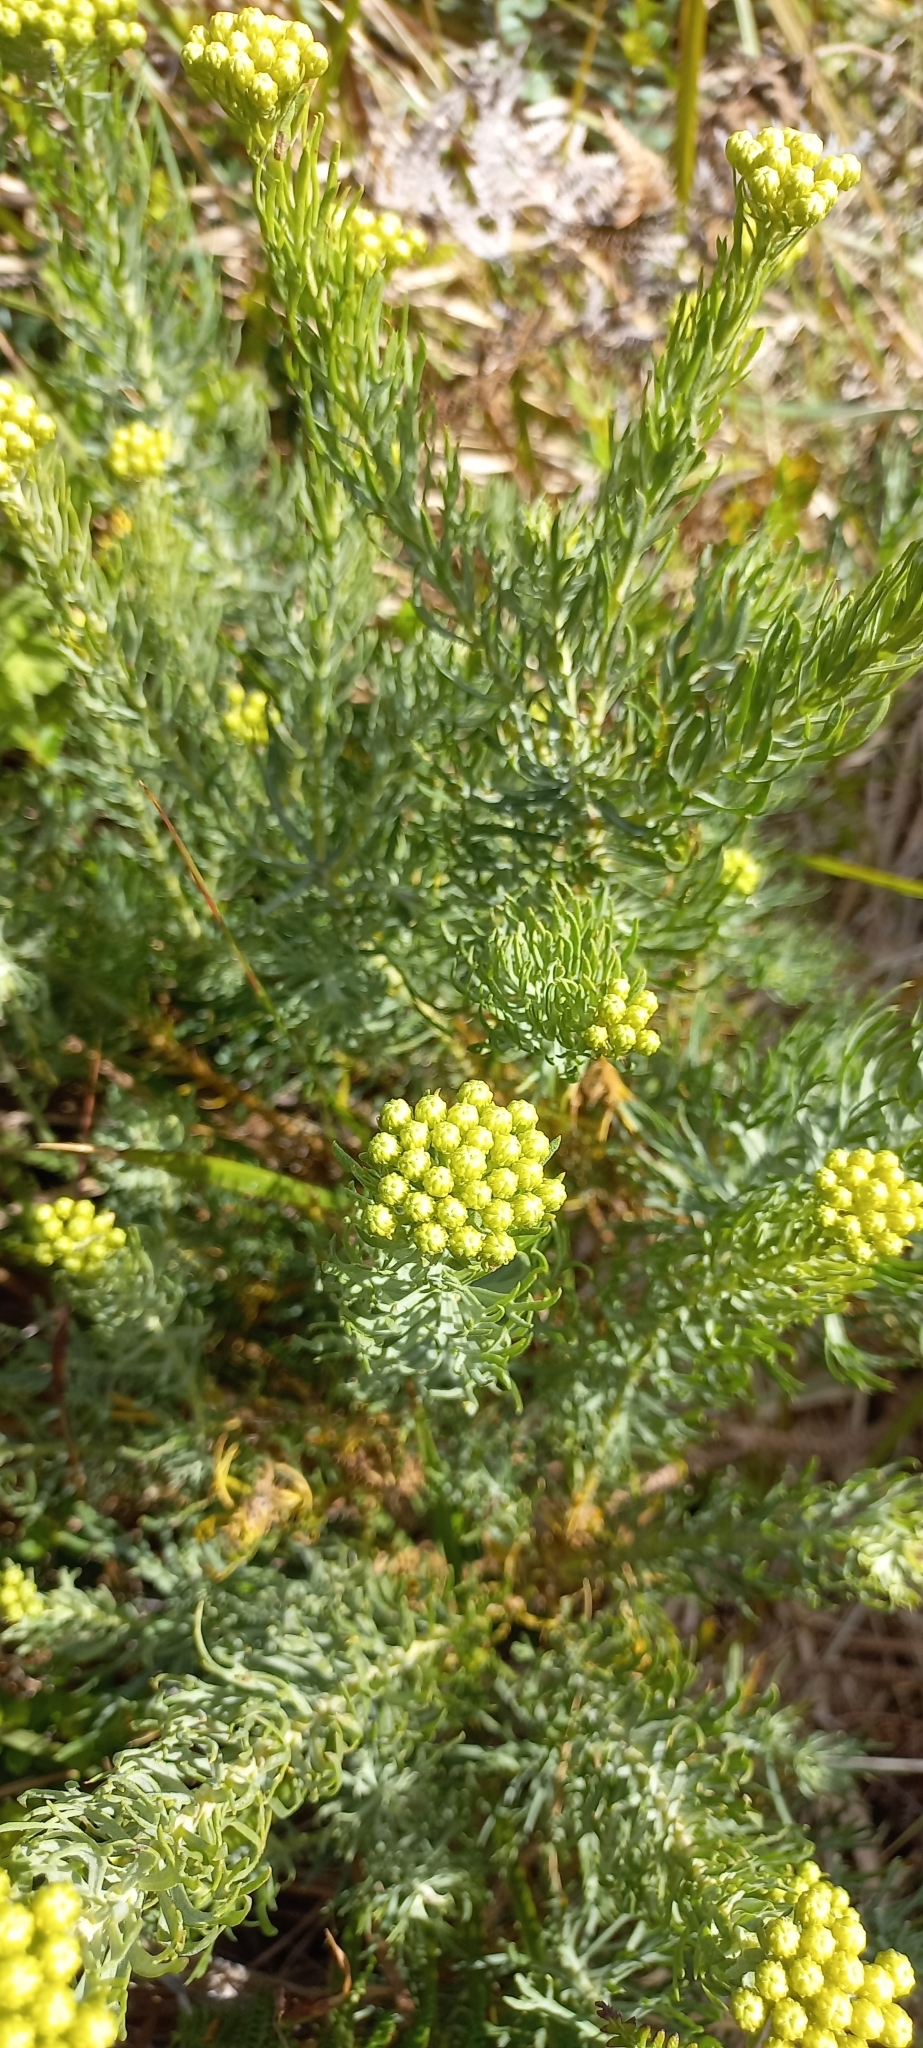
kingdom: Plantae
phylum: Tracheophyta
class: Magnoliopsida
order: Asterales
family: Asteraceae
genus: Athanasia
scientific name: Athanasia crithmifolia
